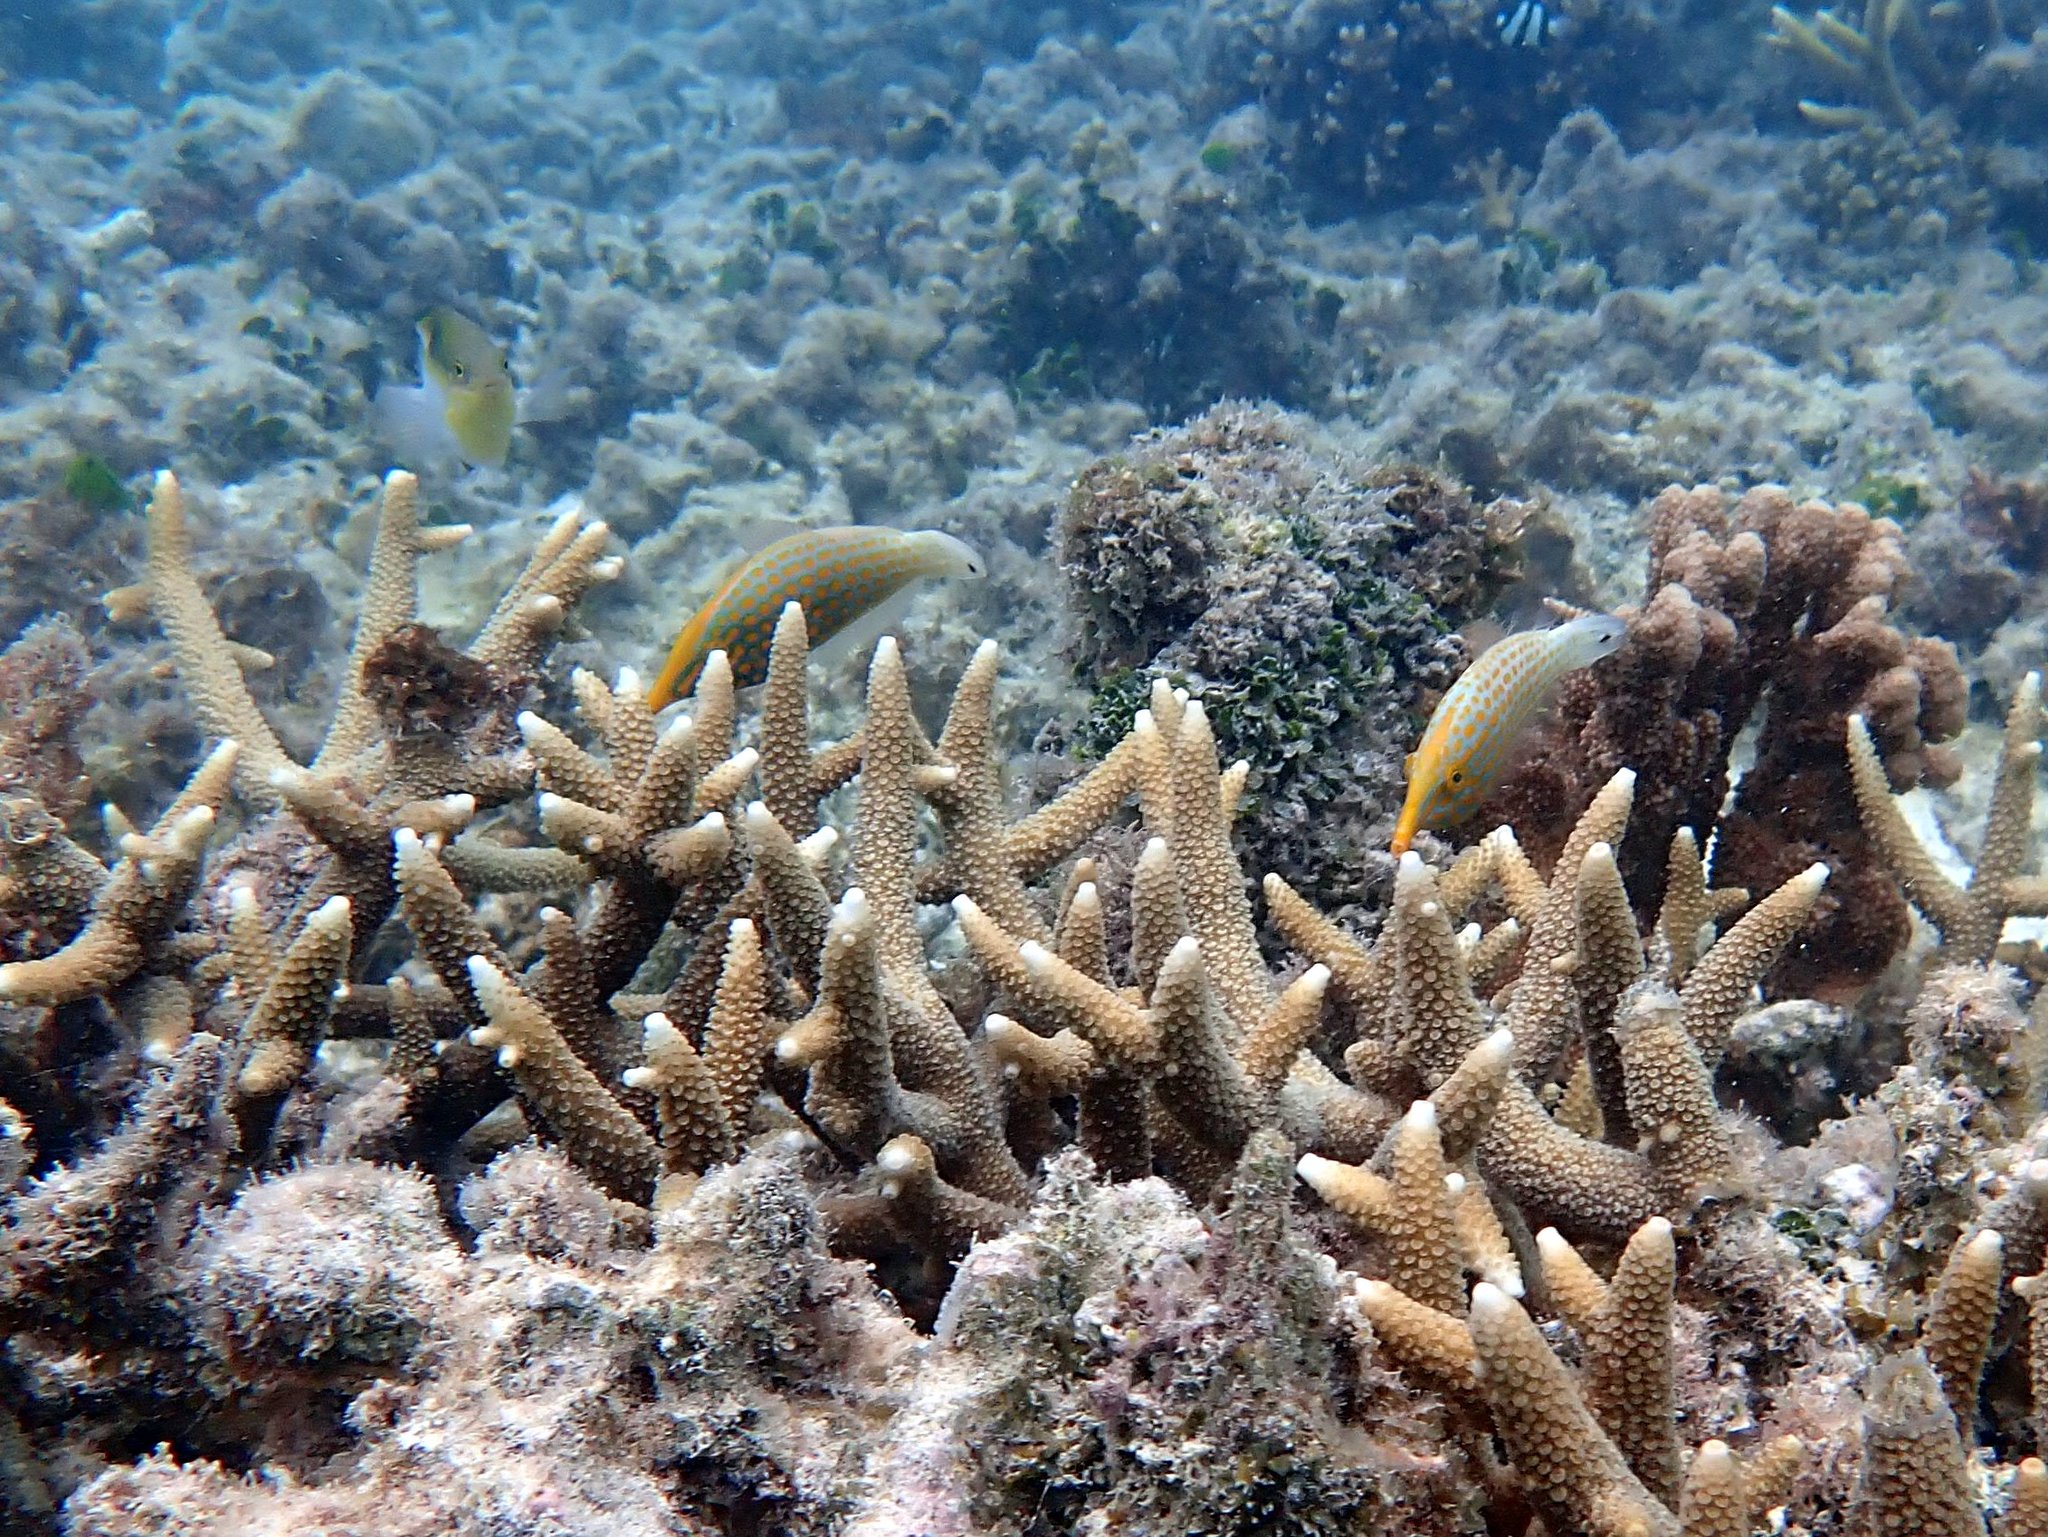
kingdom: Animalia
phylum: Chordata
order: Tetraodontiformes
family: Monacanthidae
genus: Oxymonacanthus
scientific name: Oxymonacanthus longirostris
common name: Beaked leatherjacket
